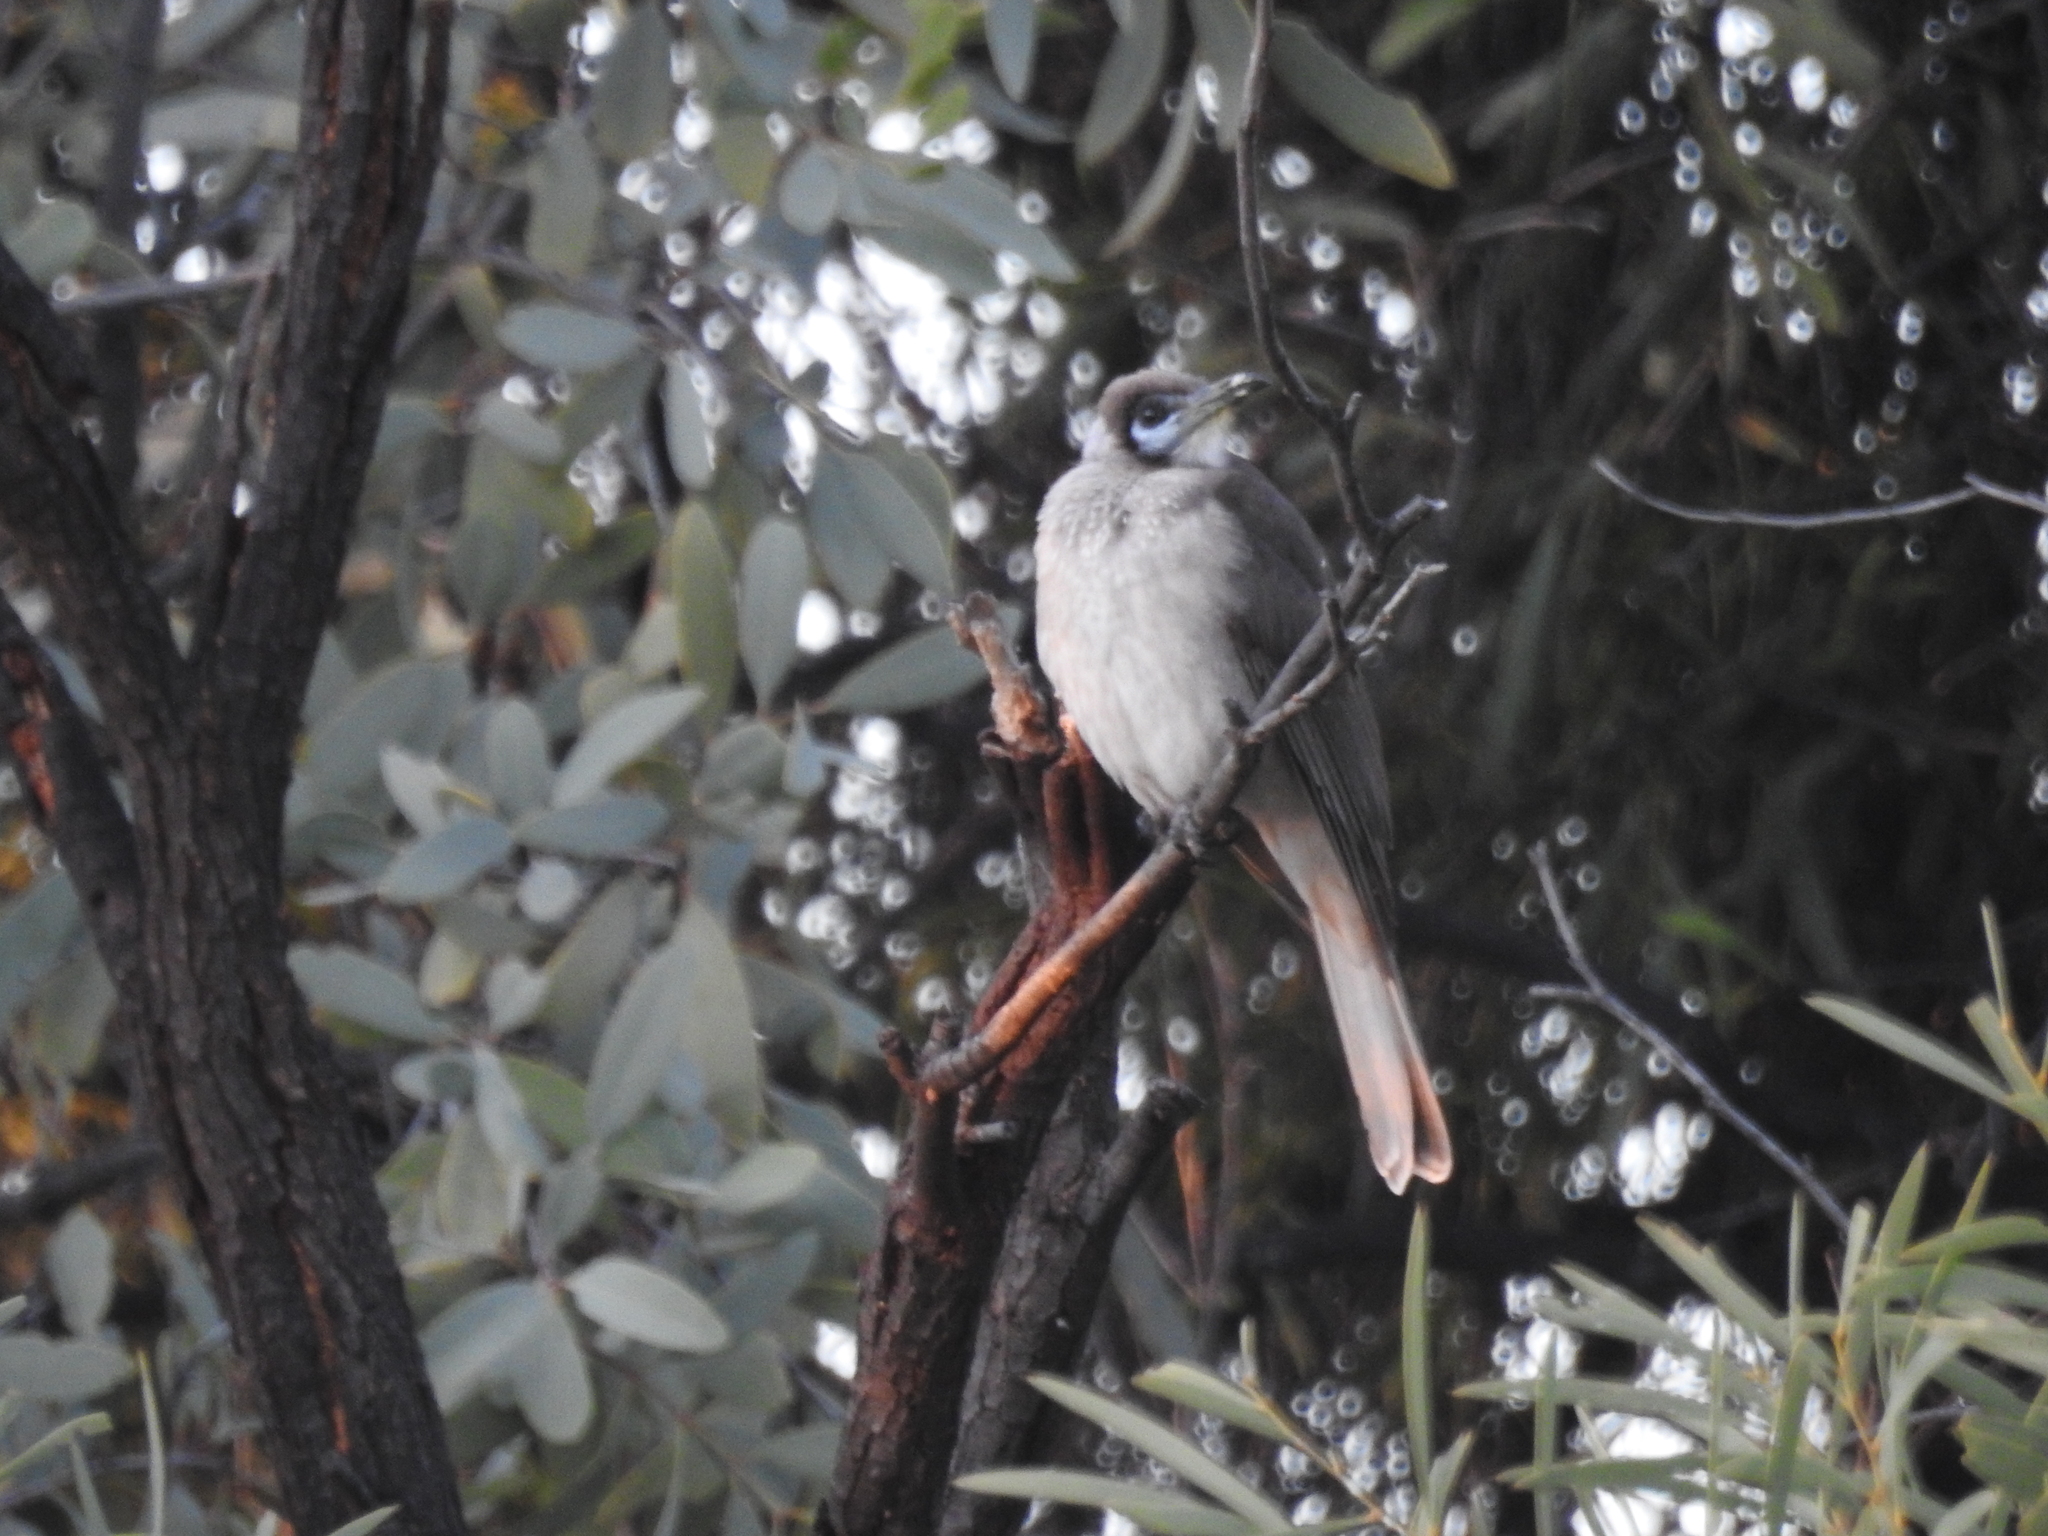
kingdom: Animalia
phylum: Chordata
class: Aves
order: Passeriformes
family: Meliphagidae
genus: Philemon
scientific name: Philemon citreogularis
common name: Little friarbird
